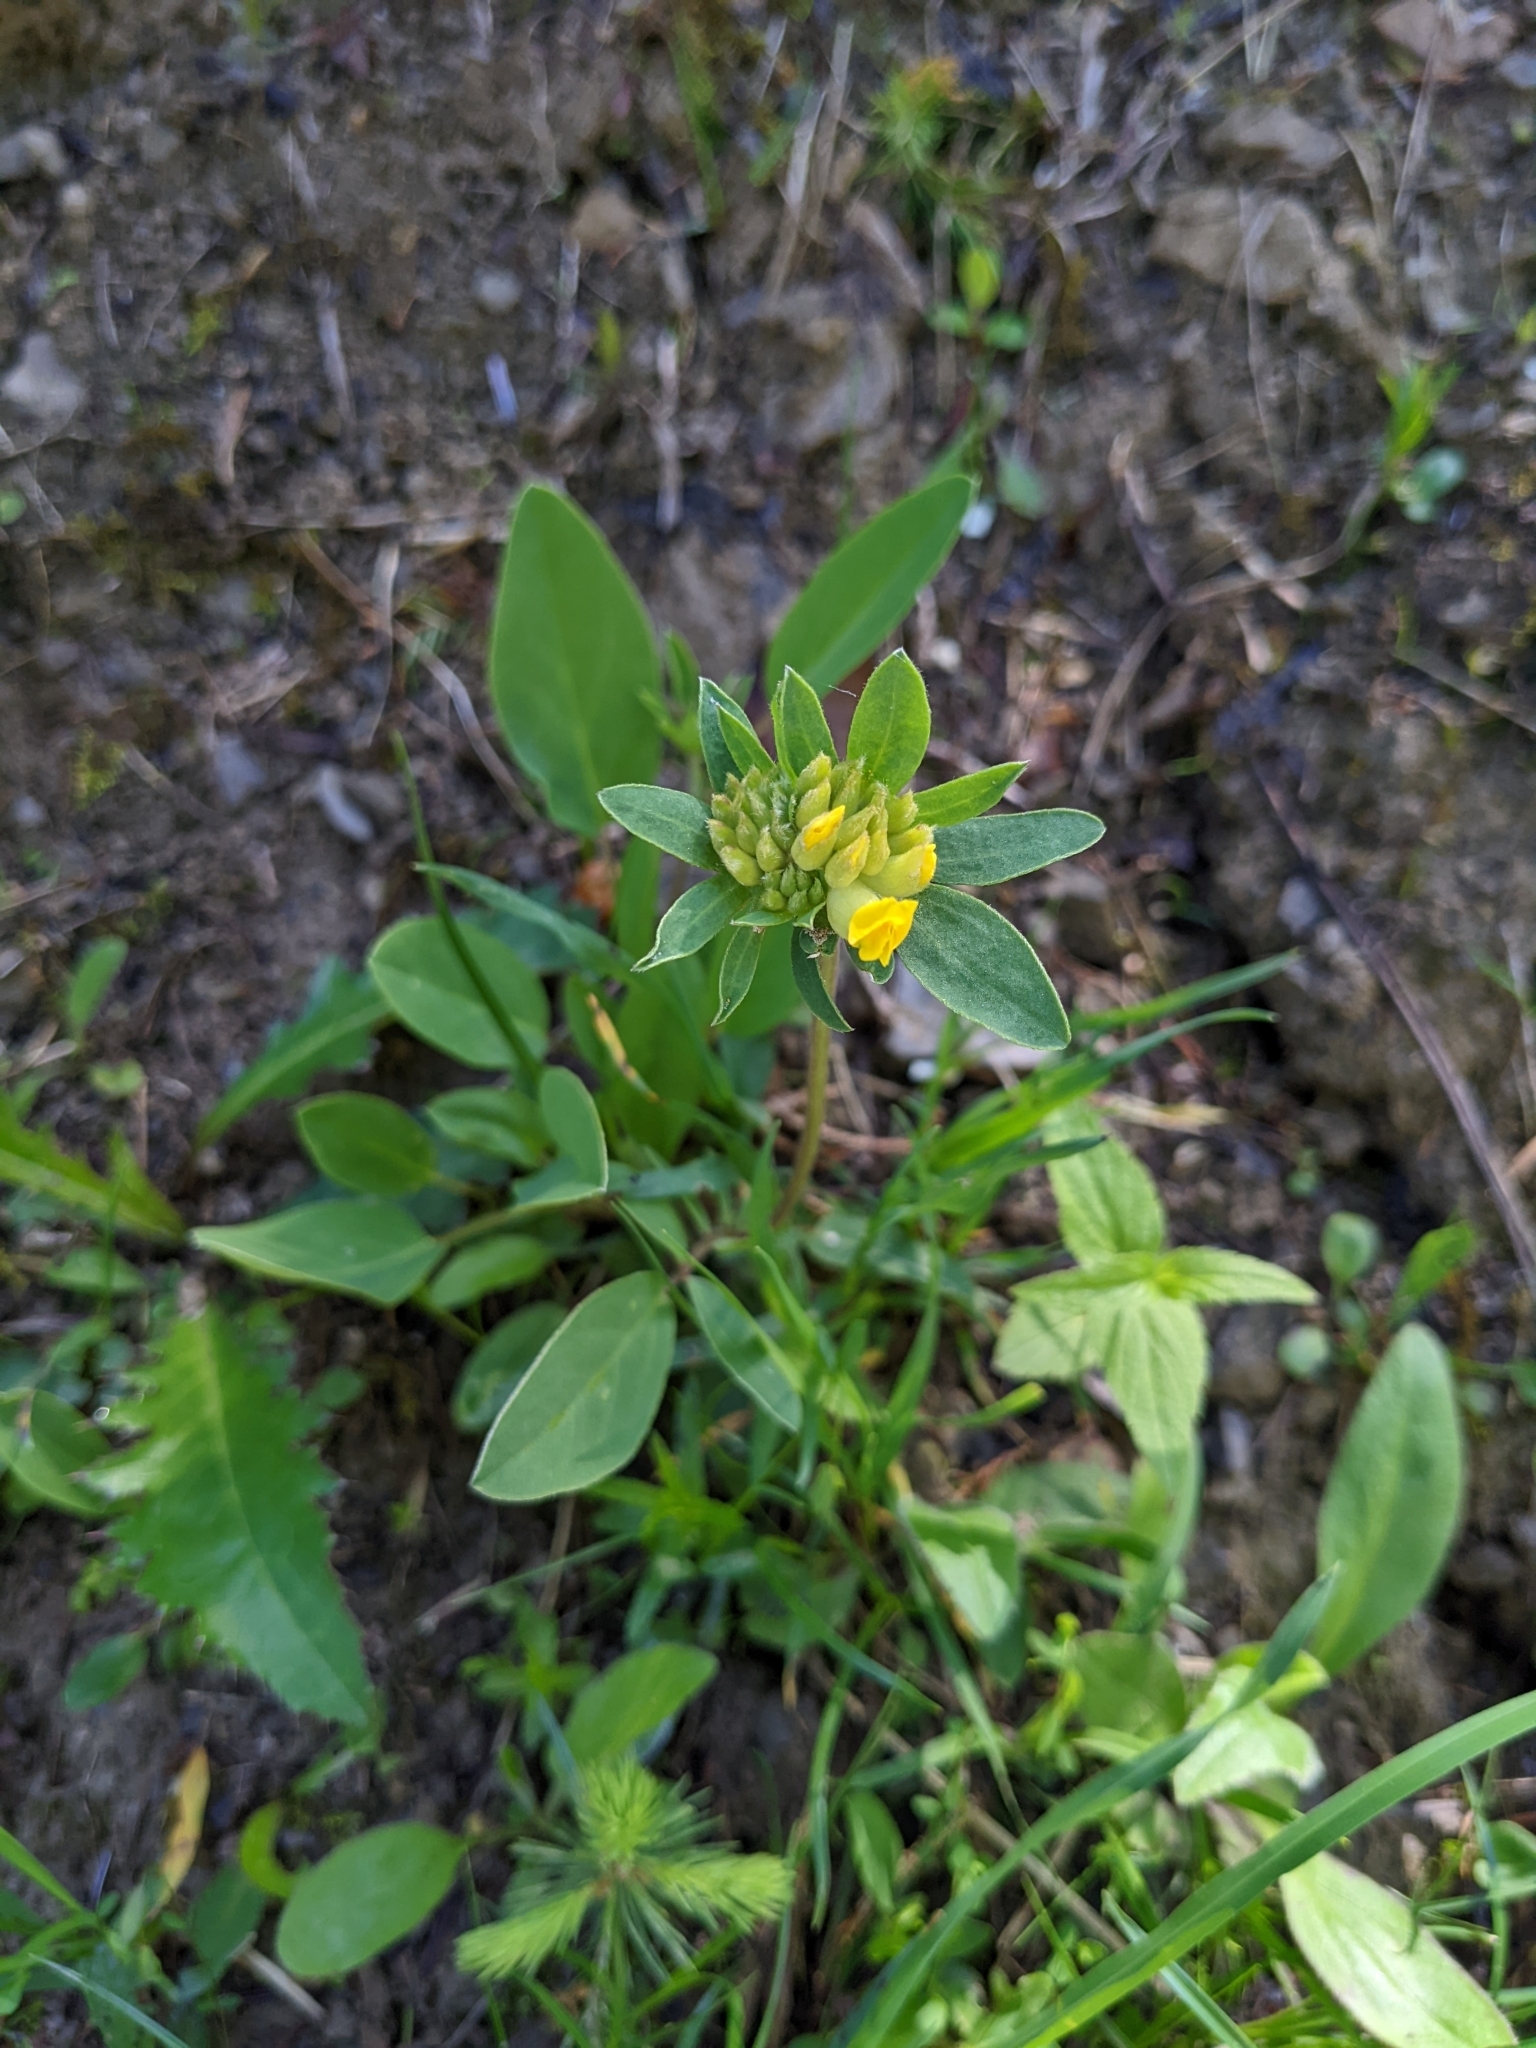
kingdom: Plantae
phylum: Tracheophyta
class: Magnoliopsida
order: Fabales
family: Fabaceae
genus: Anthyllis
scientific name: Anthyllis vulneraria
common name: Kidney vetch
